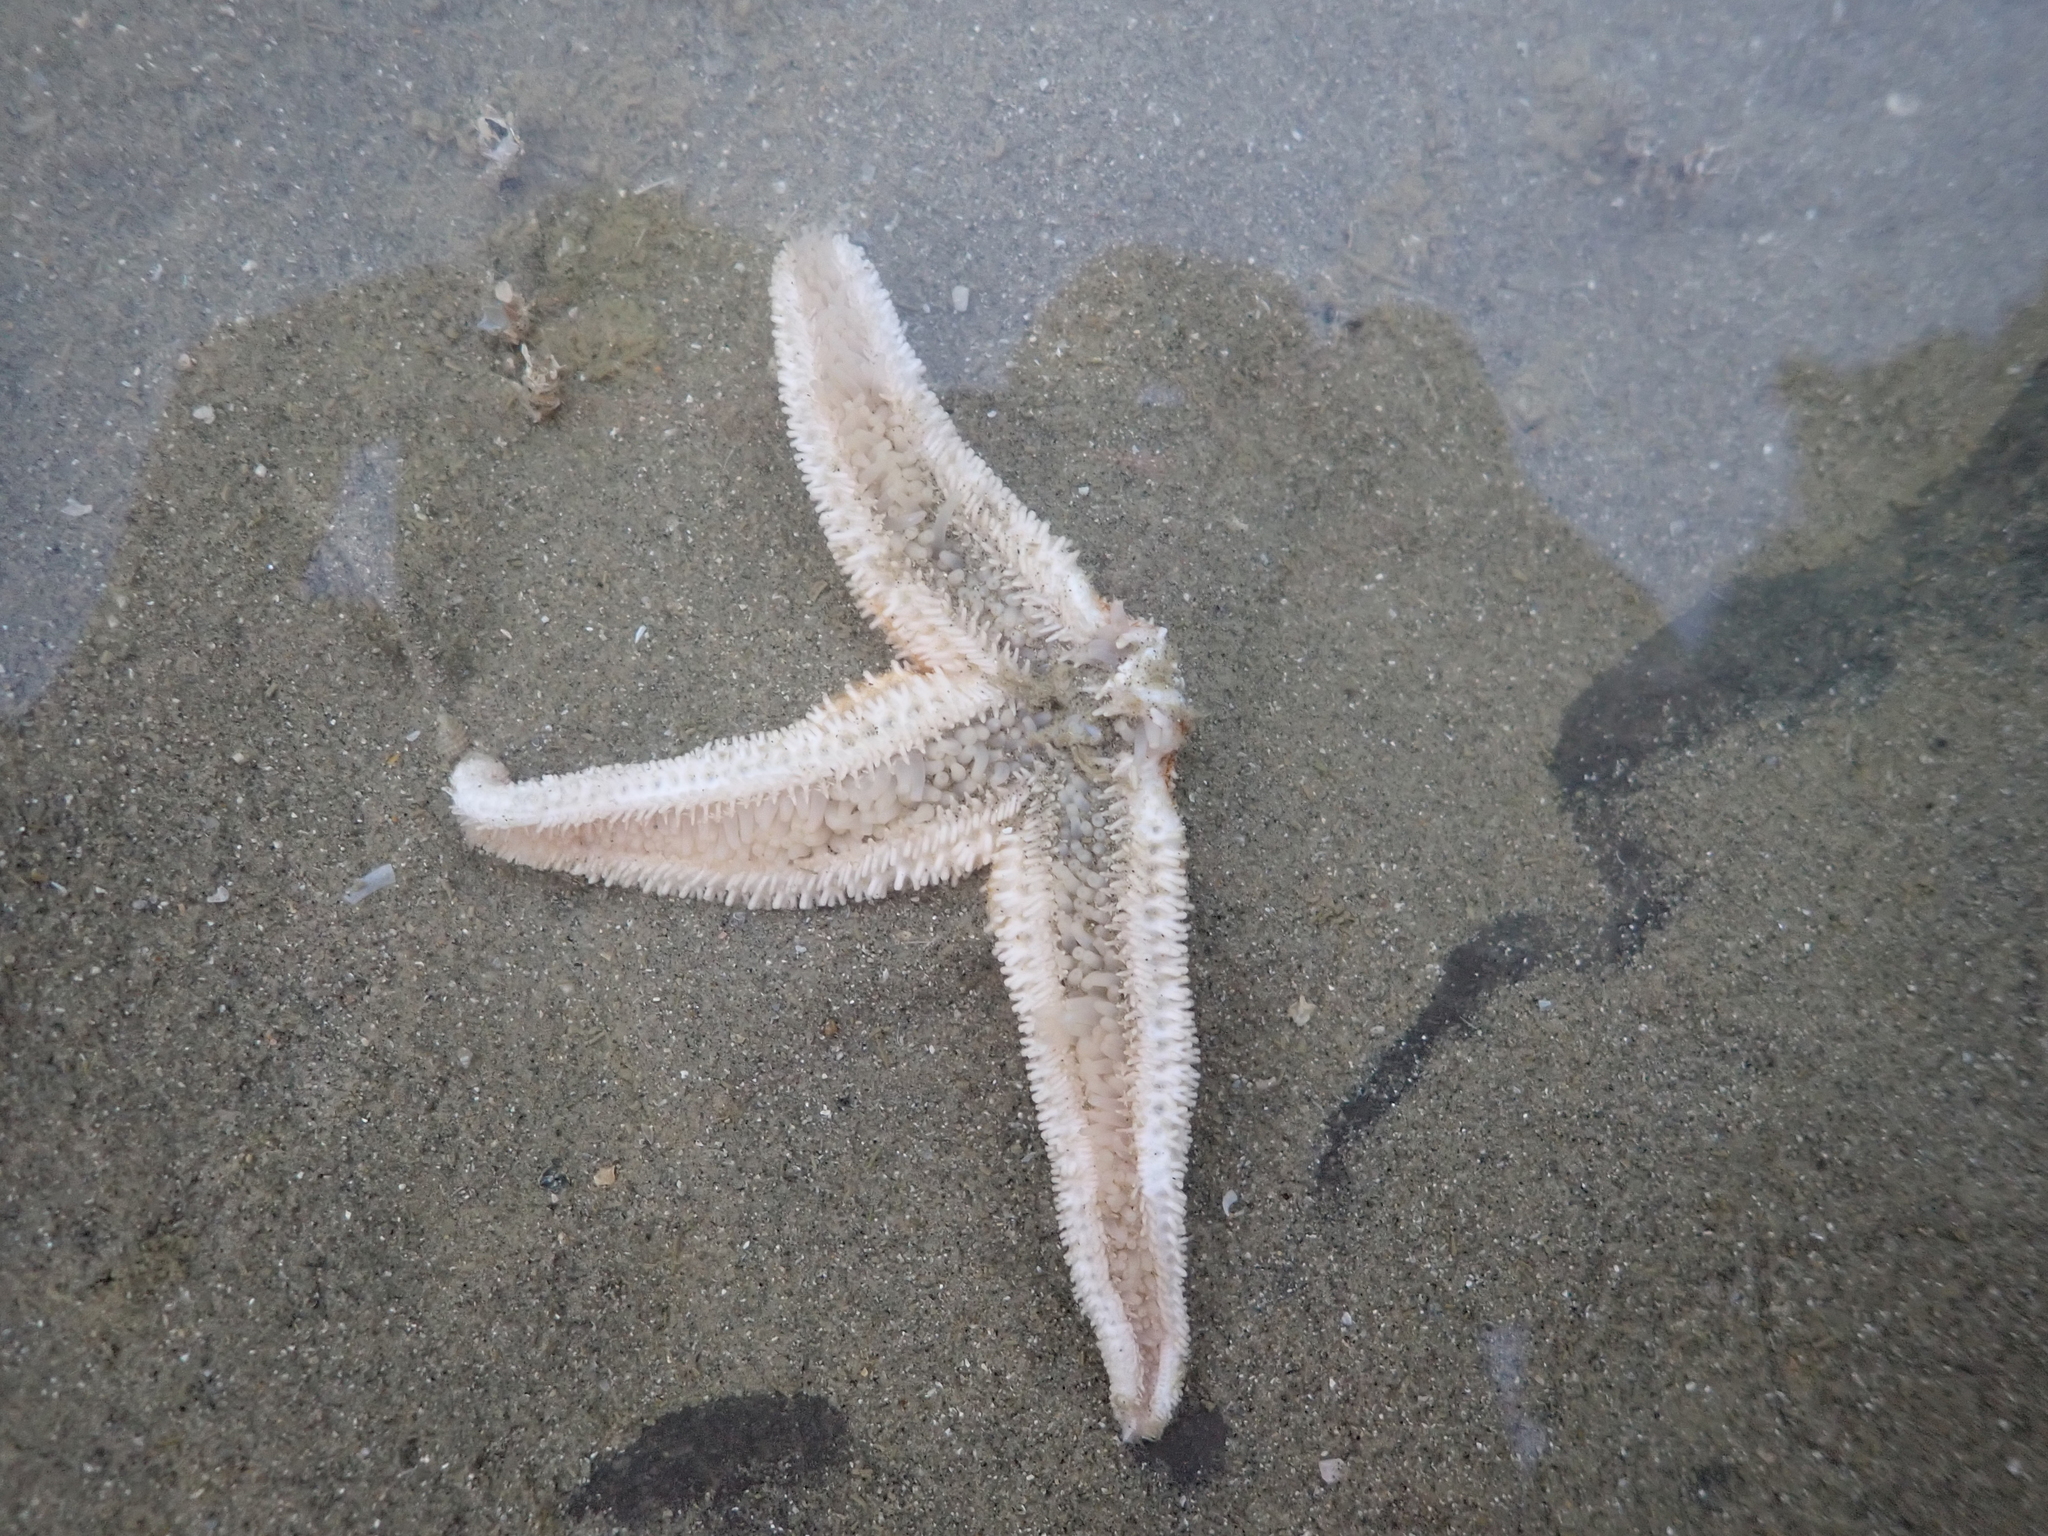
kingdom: Animalia
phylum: Echinodermata
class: Asteroidea
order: Forcipulatida
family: Asteriidae
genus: Asterias
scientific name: Asterias rubens
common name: Common starfish
